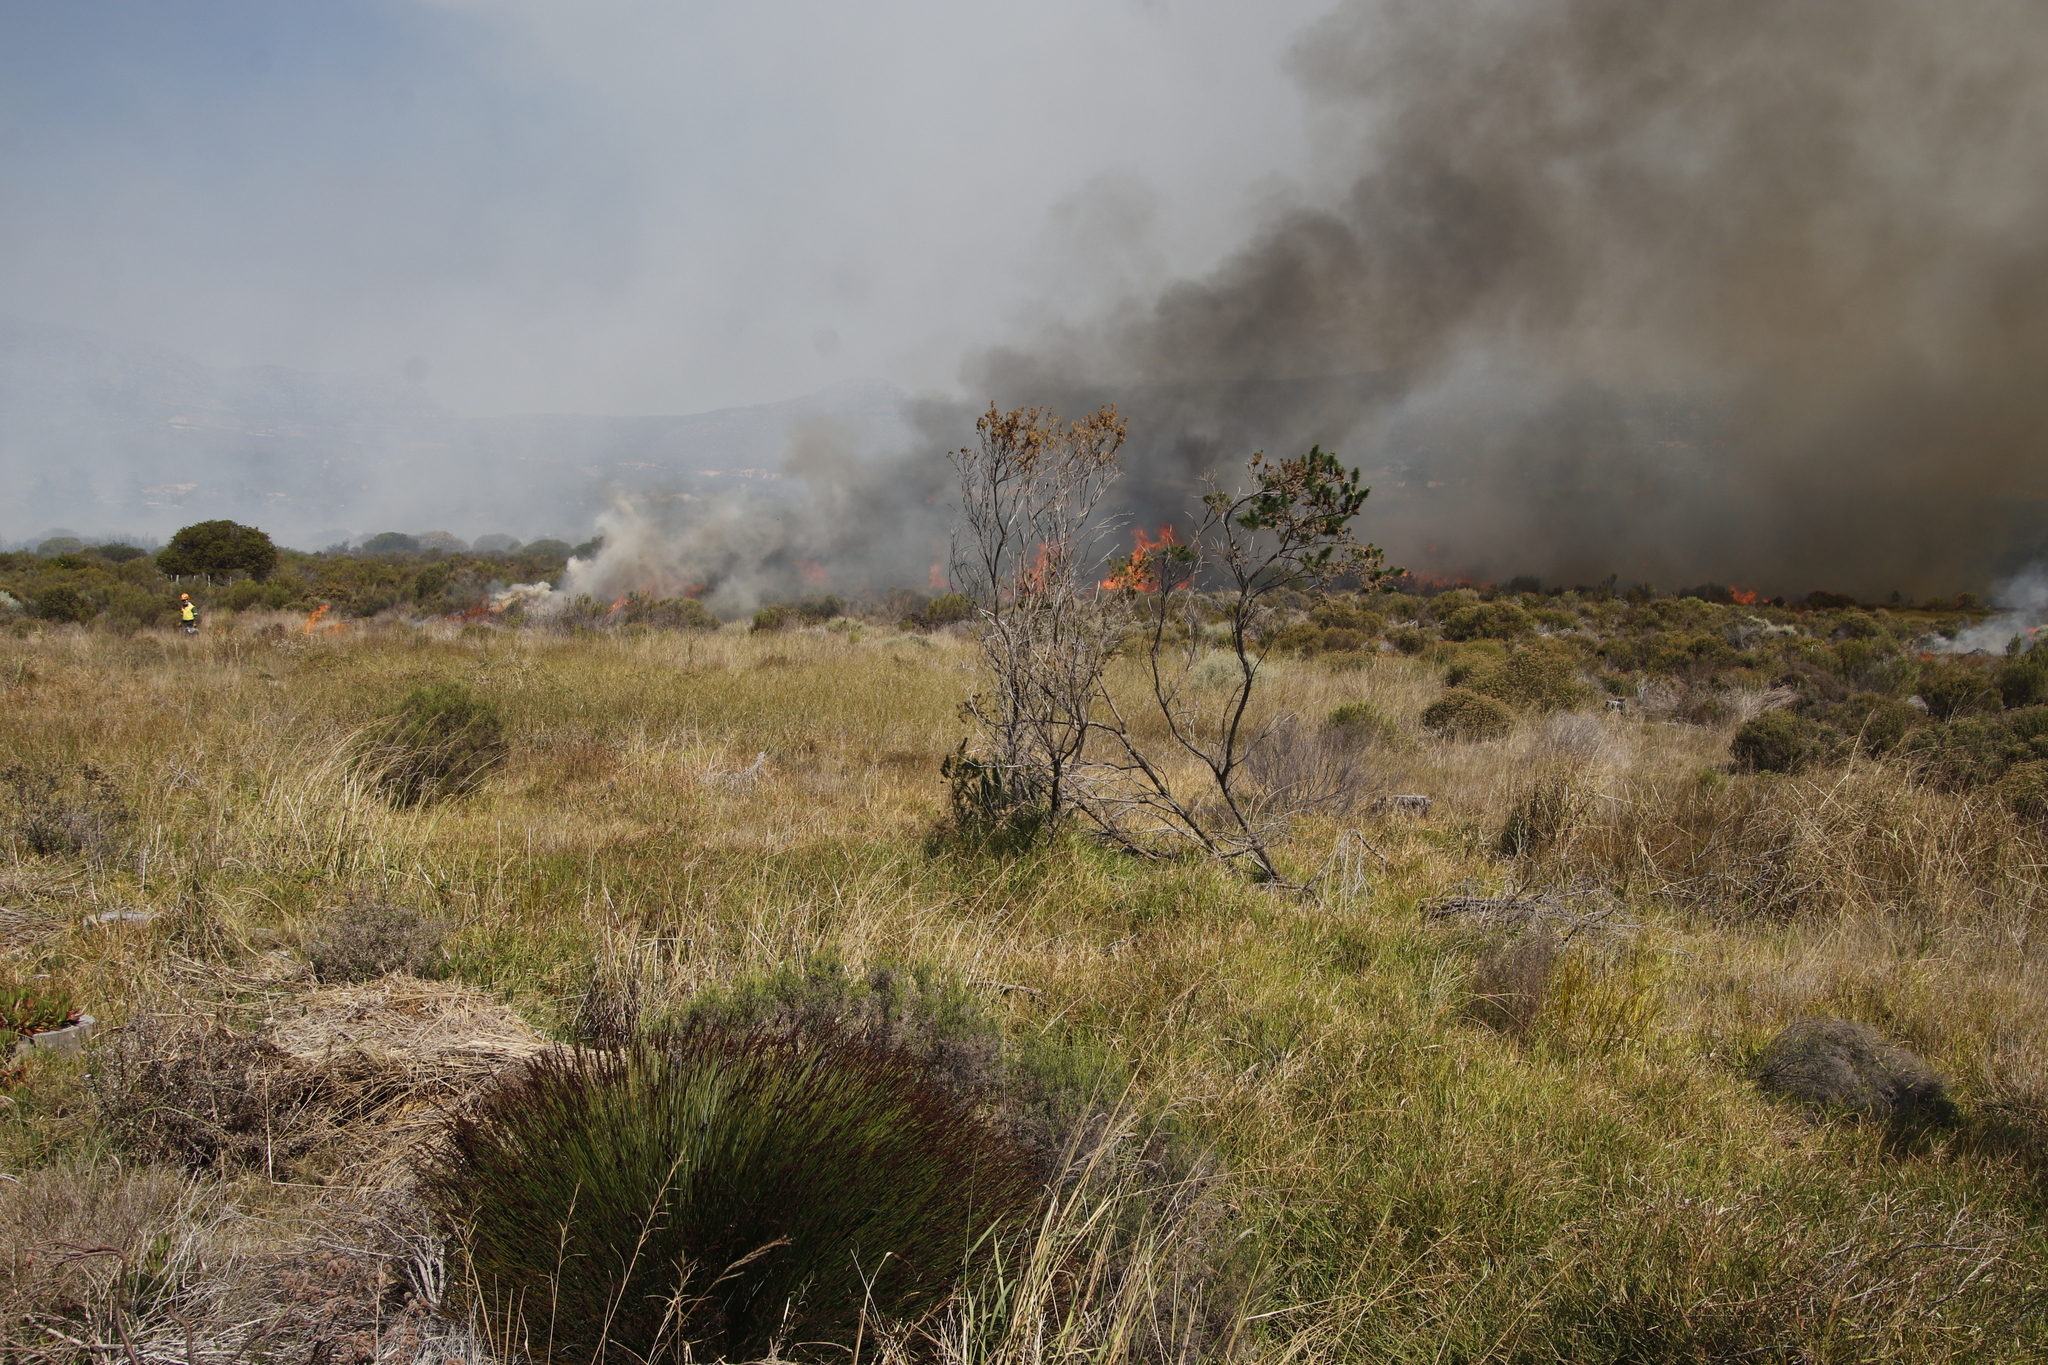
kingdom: Plantae
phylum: Tracheophyta
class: Magnoliopsida
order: Fabales
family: Fabaceae
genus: Psoralea
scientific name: Psoralea pinnata
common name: African scurfpea
